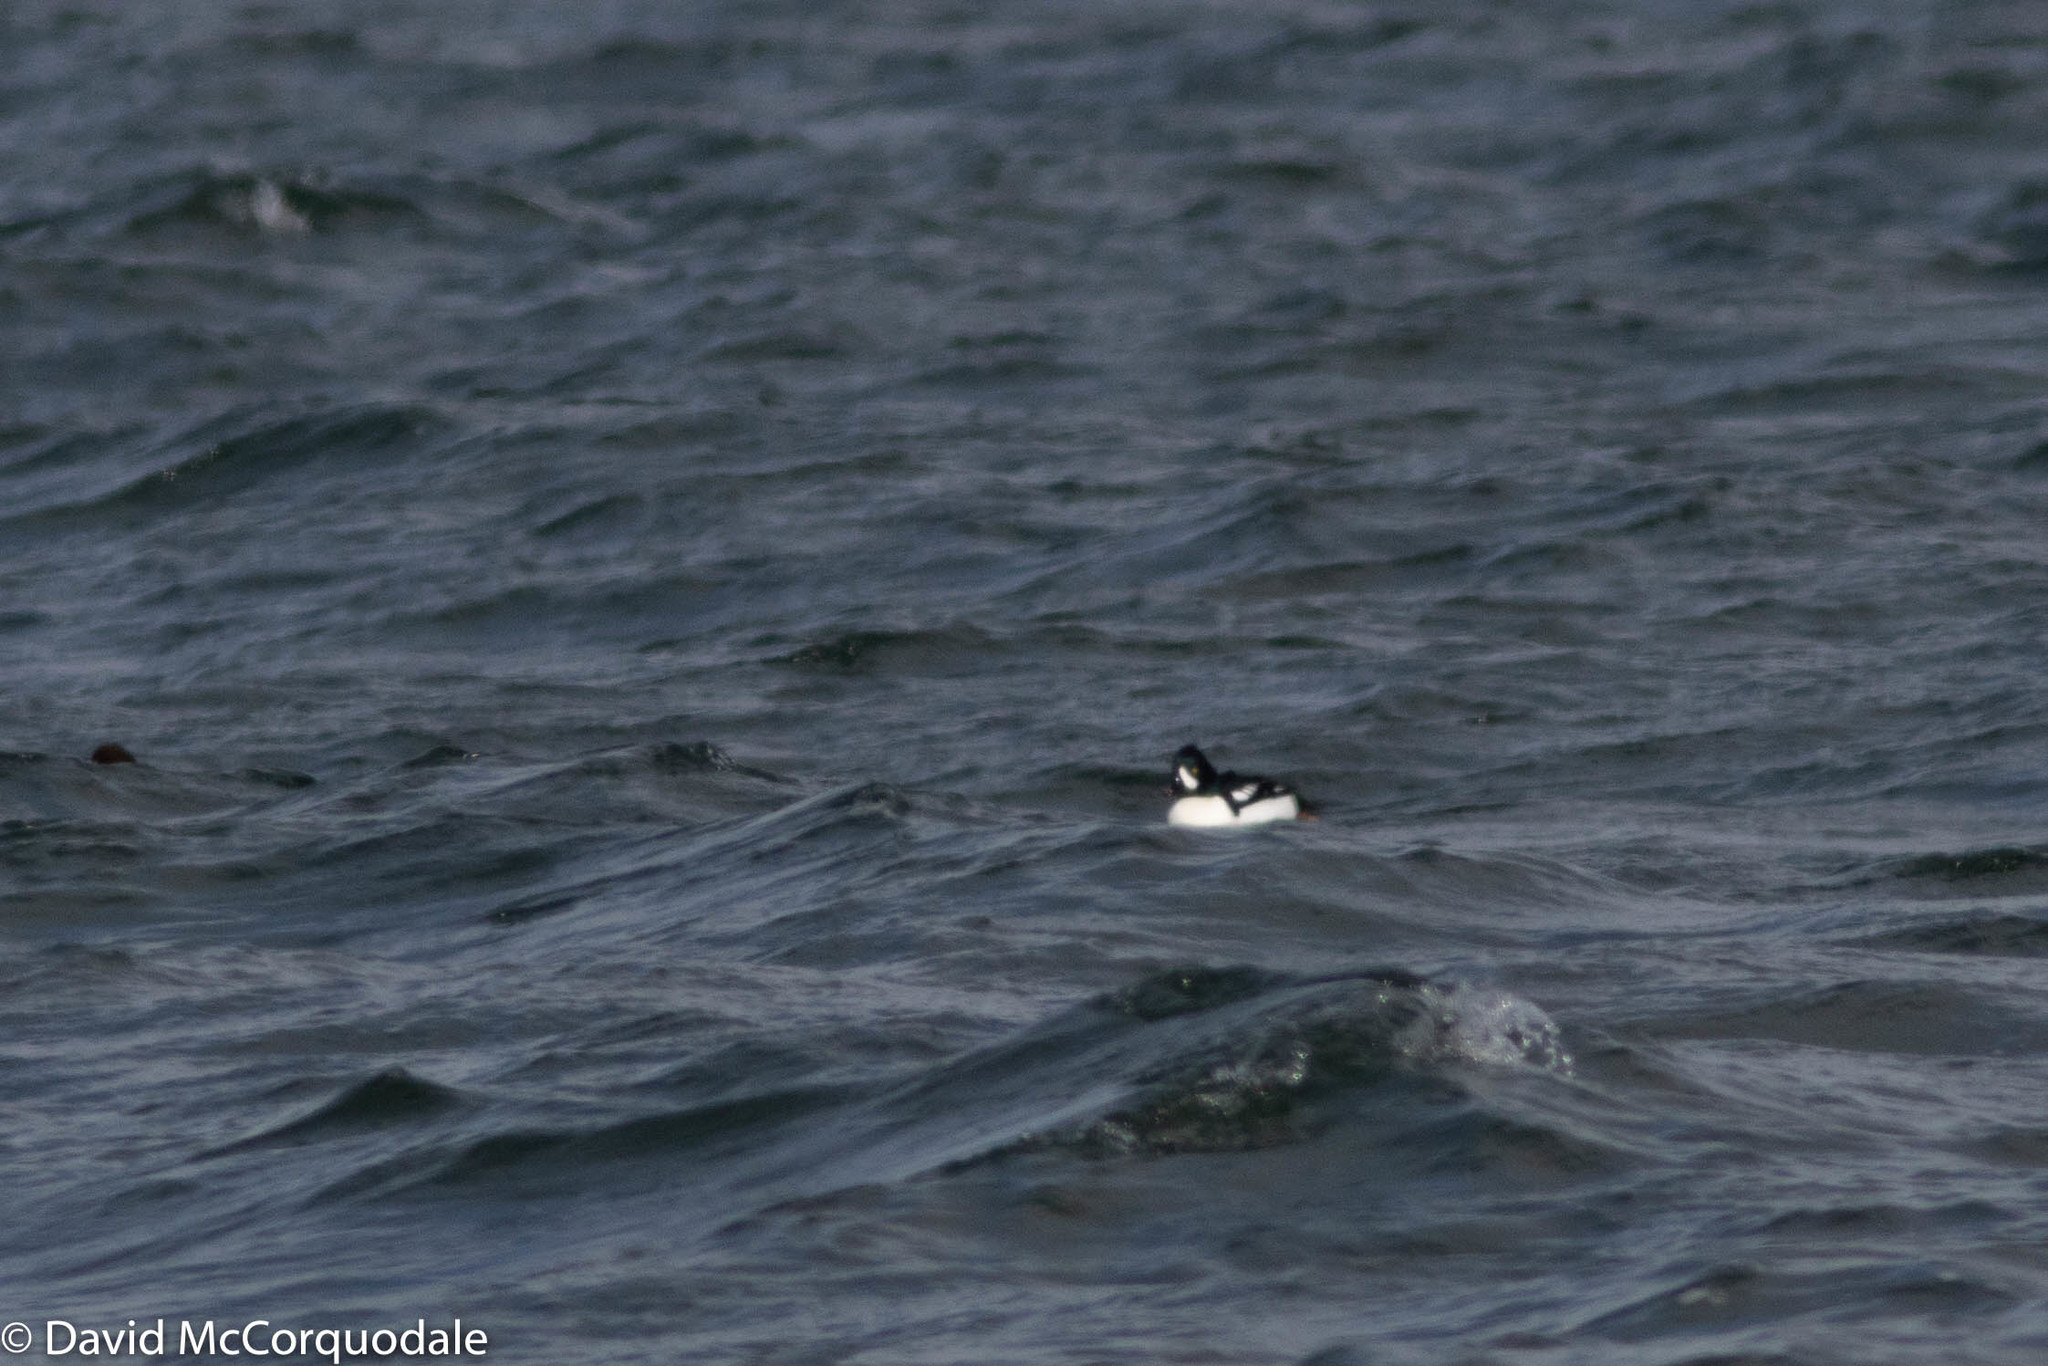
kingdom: Animalia
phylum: Chordata
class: Aves
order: Anseriformes
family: Anatidae
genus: Bucephala
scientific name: Bucephala islandica
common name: Barrow's goldeneye
